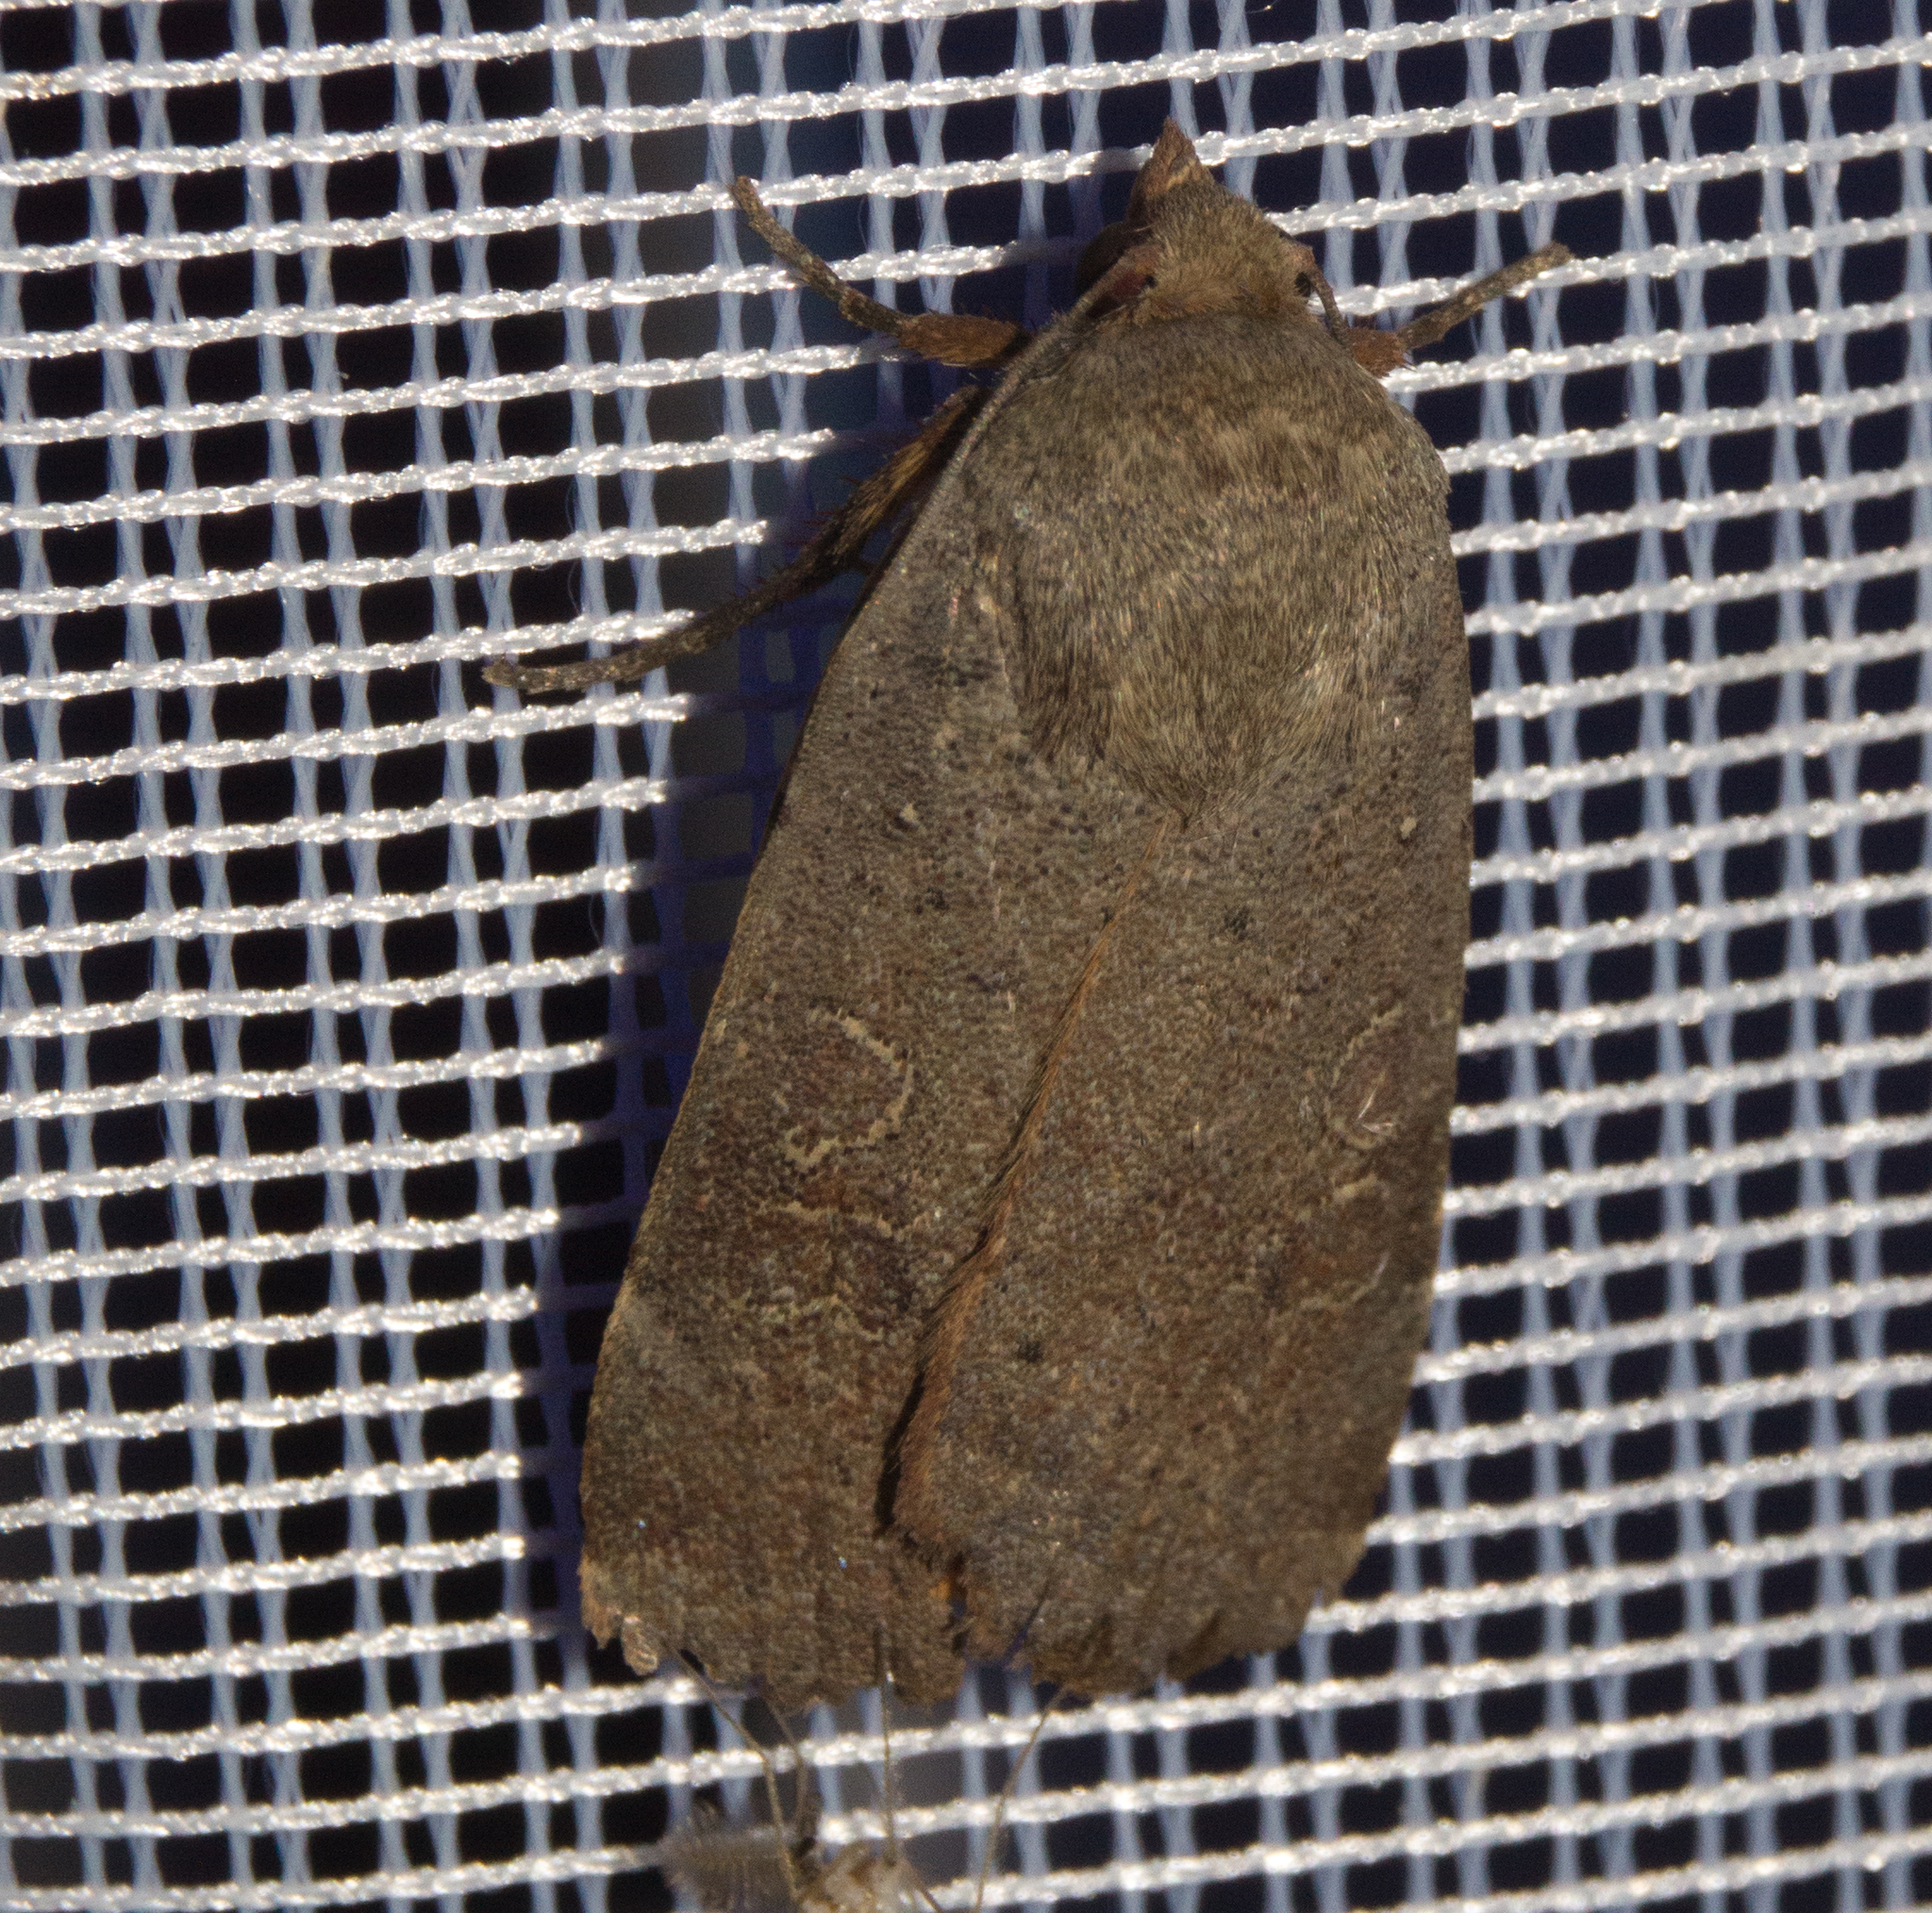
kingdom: Animalia
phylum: Arthropoda
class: Insecta
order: Lepidoptera
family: Noctuidae
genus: Noctua
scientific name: Noctua comes
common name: Lesser yellow underwing
